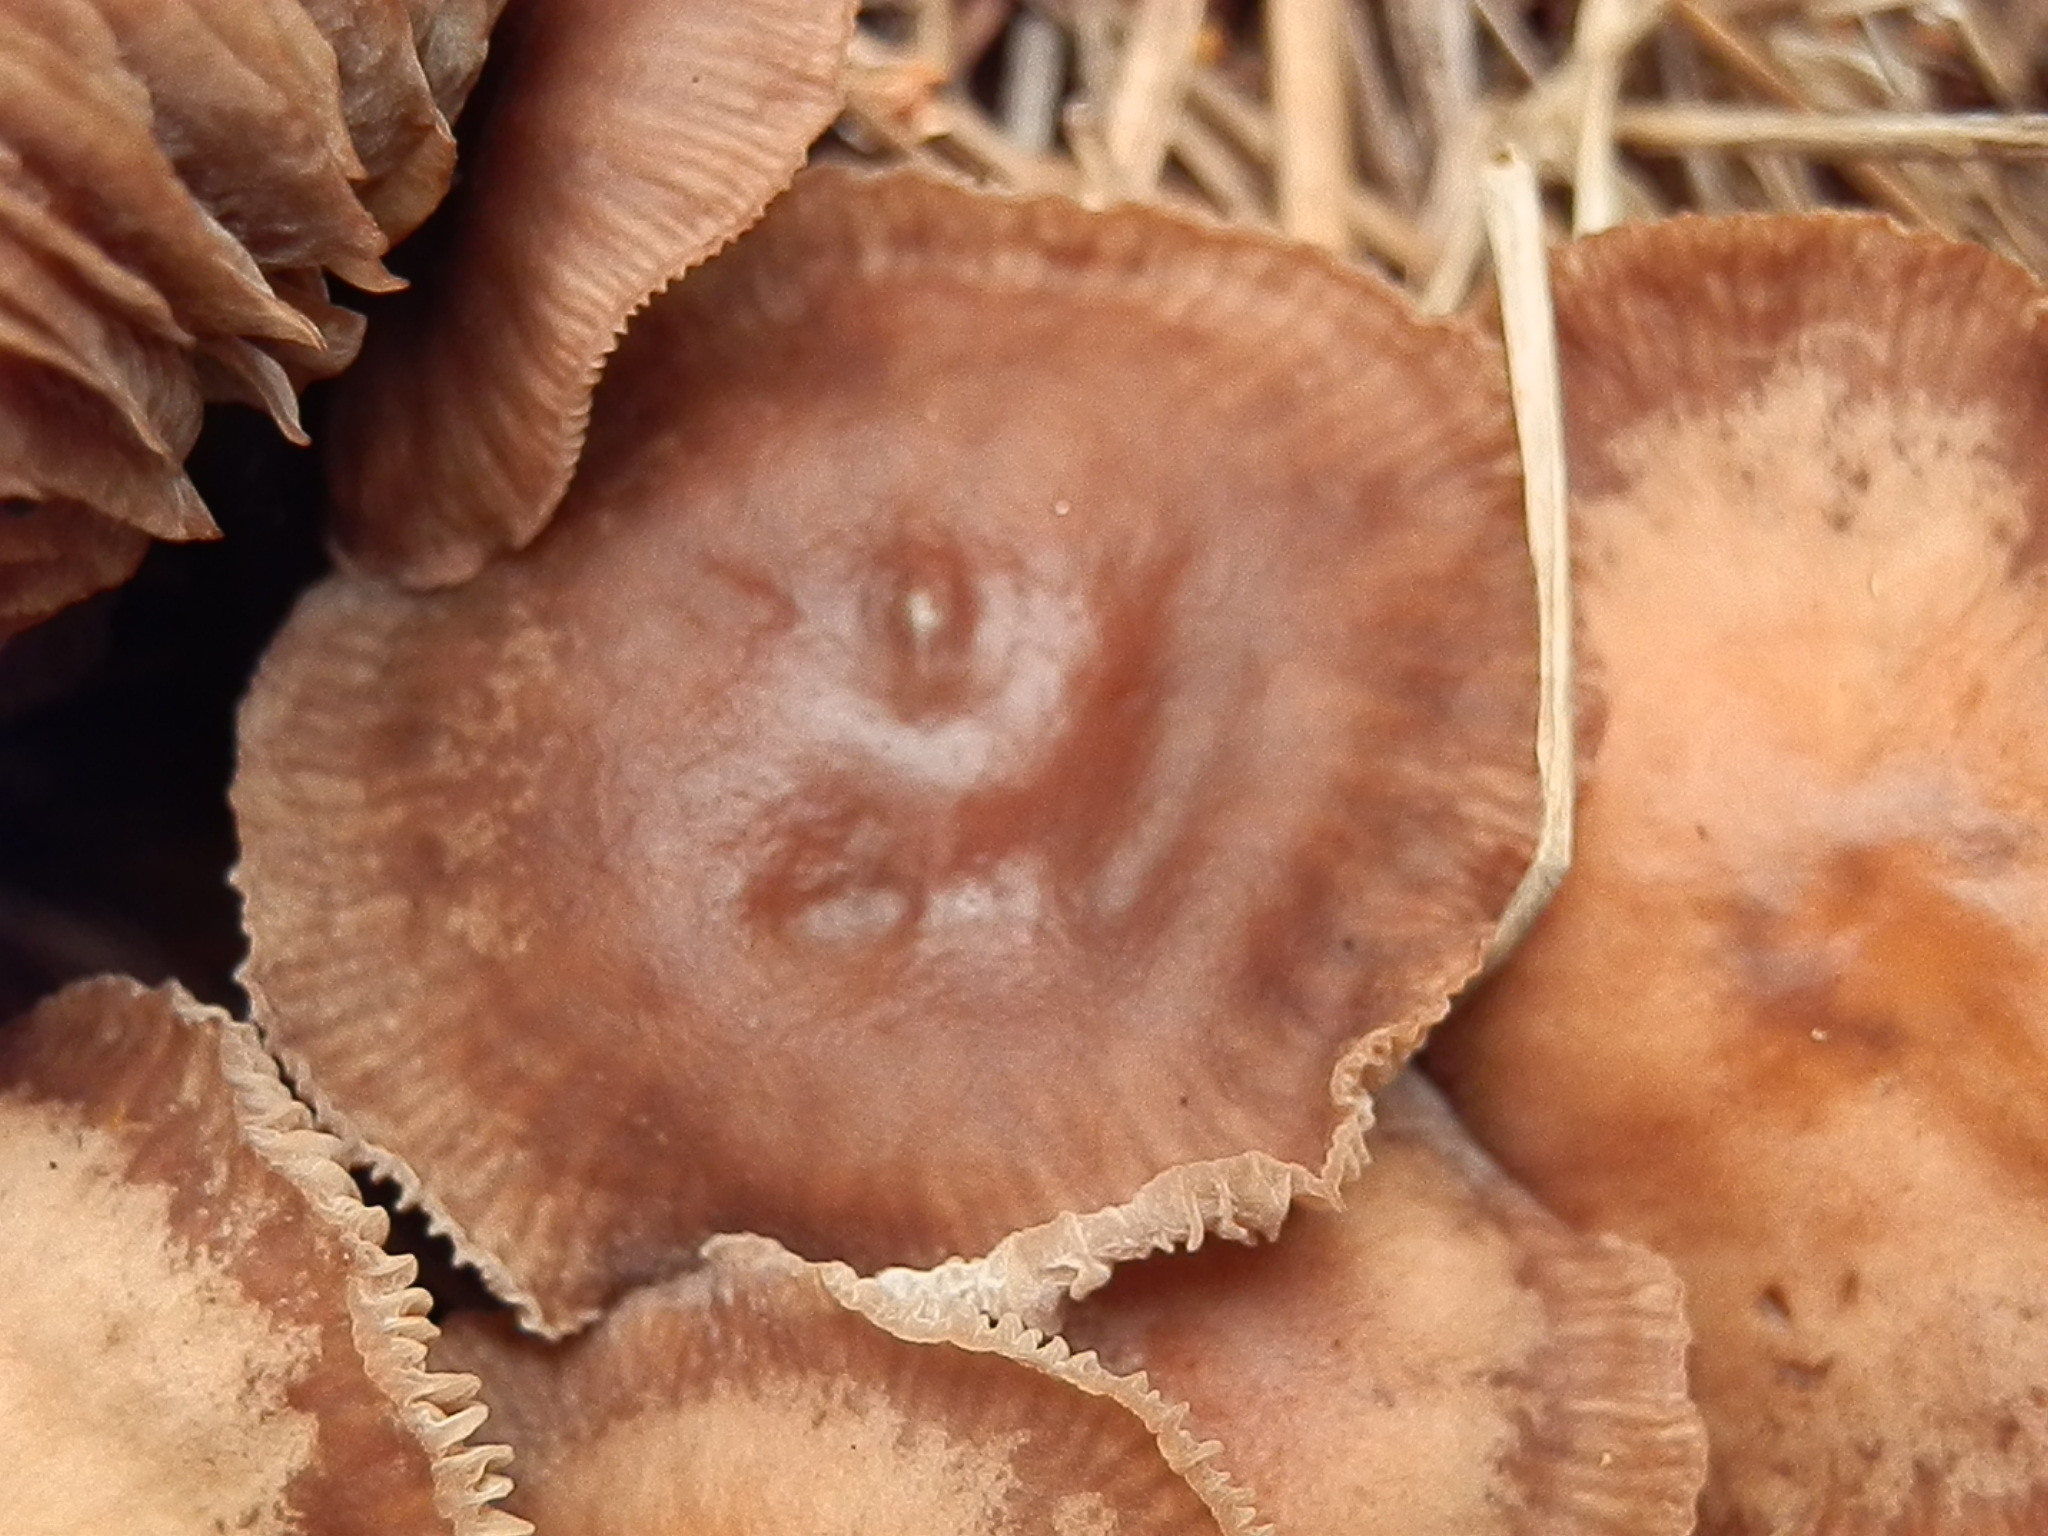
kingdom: Fungi
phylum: Basidiomycota
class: Agaricomycetes
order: Agaricales
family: Omphalotaceae
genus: Gymnopus
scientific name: Gymnopus fuscopurpureus
